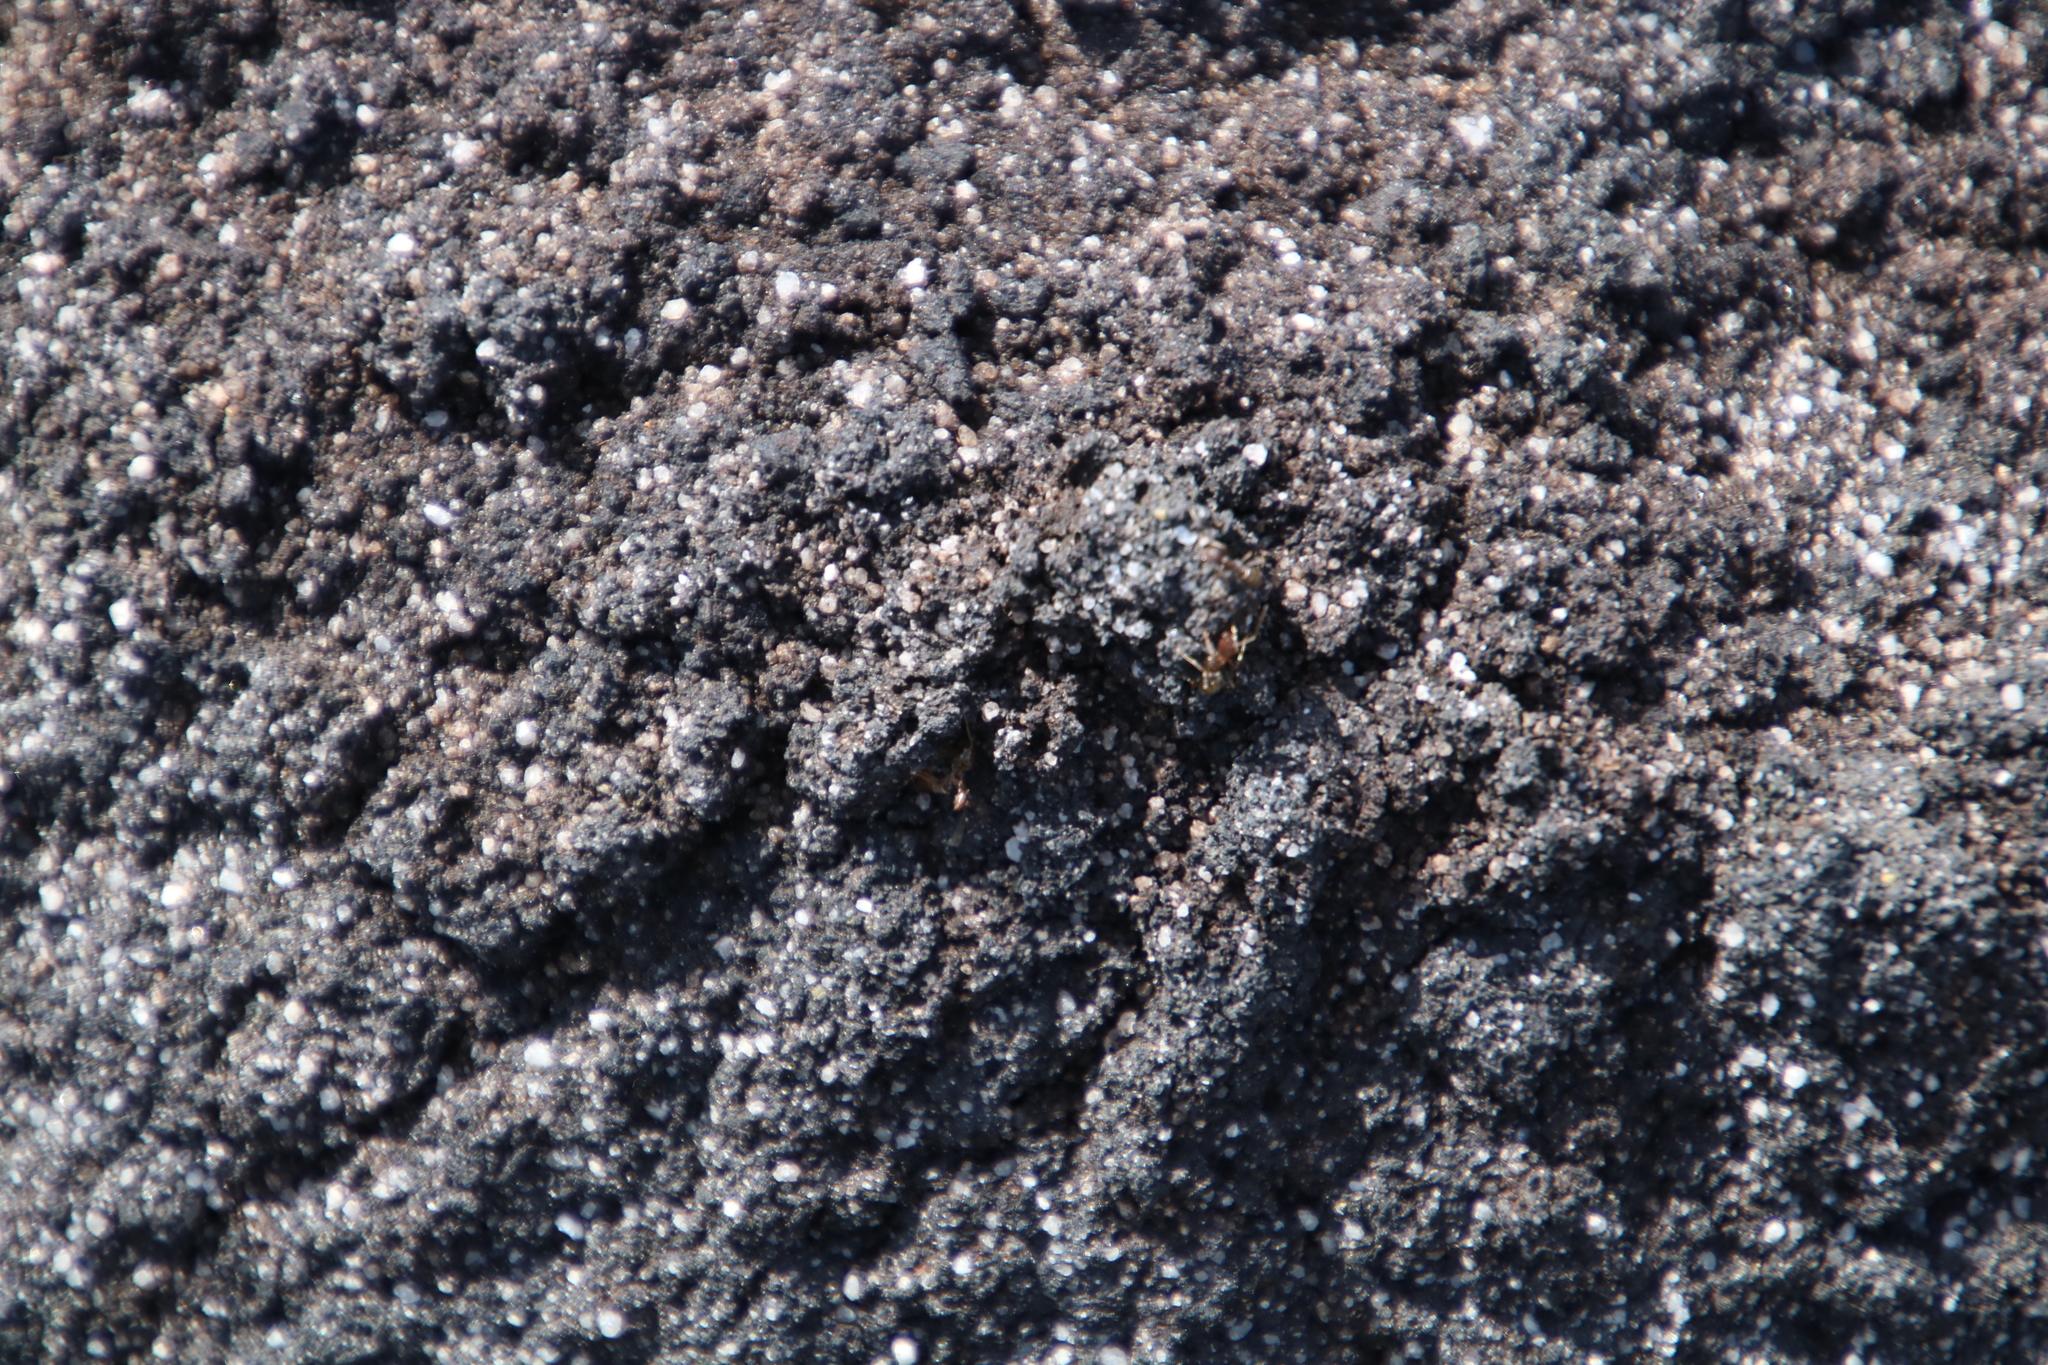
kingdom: Animalia
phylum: Arthropoda
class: Insecta
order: Hymenoptera
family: Formicidae
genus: Anoplolepis
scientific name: Anoplolepis steingroeveri
